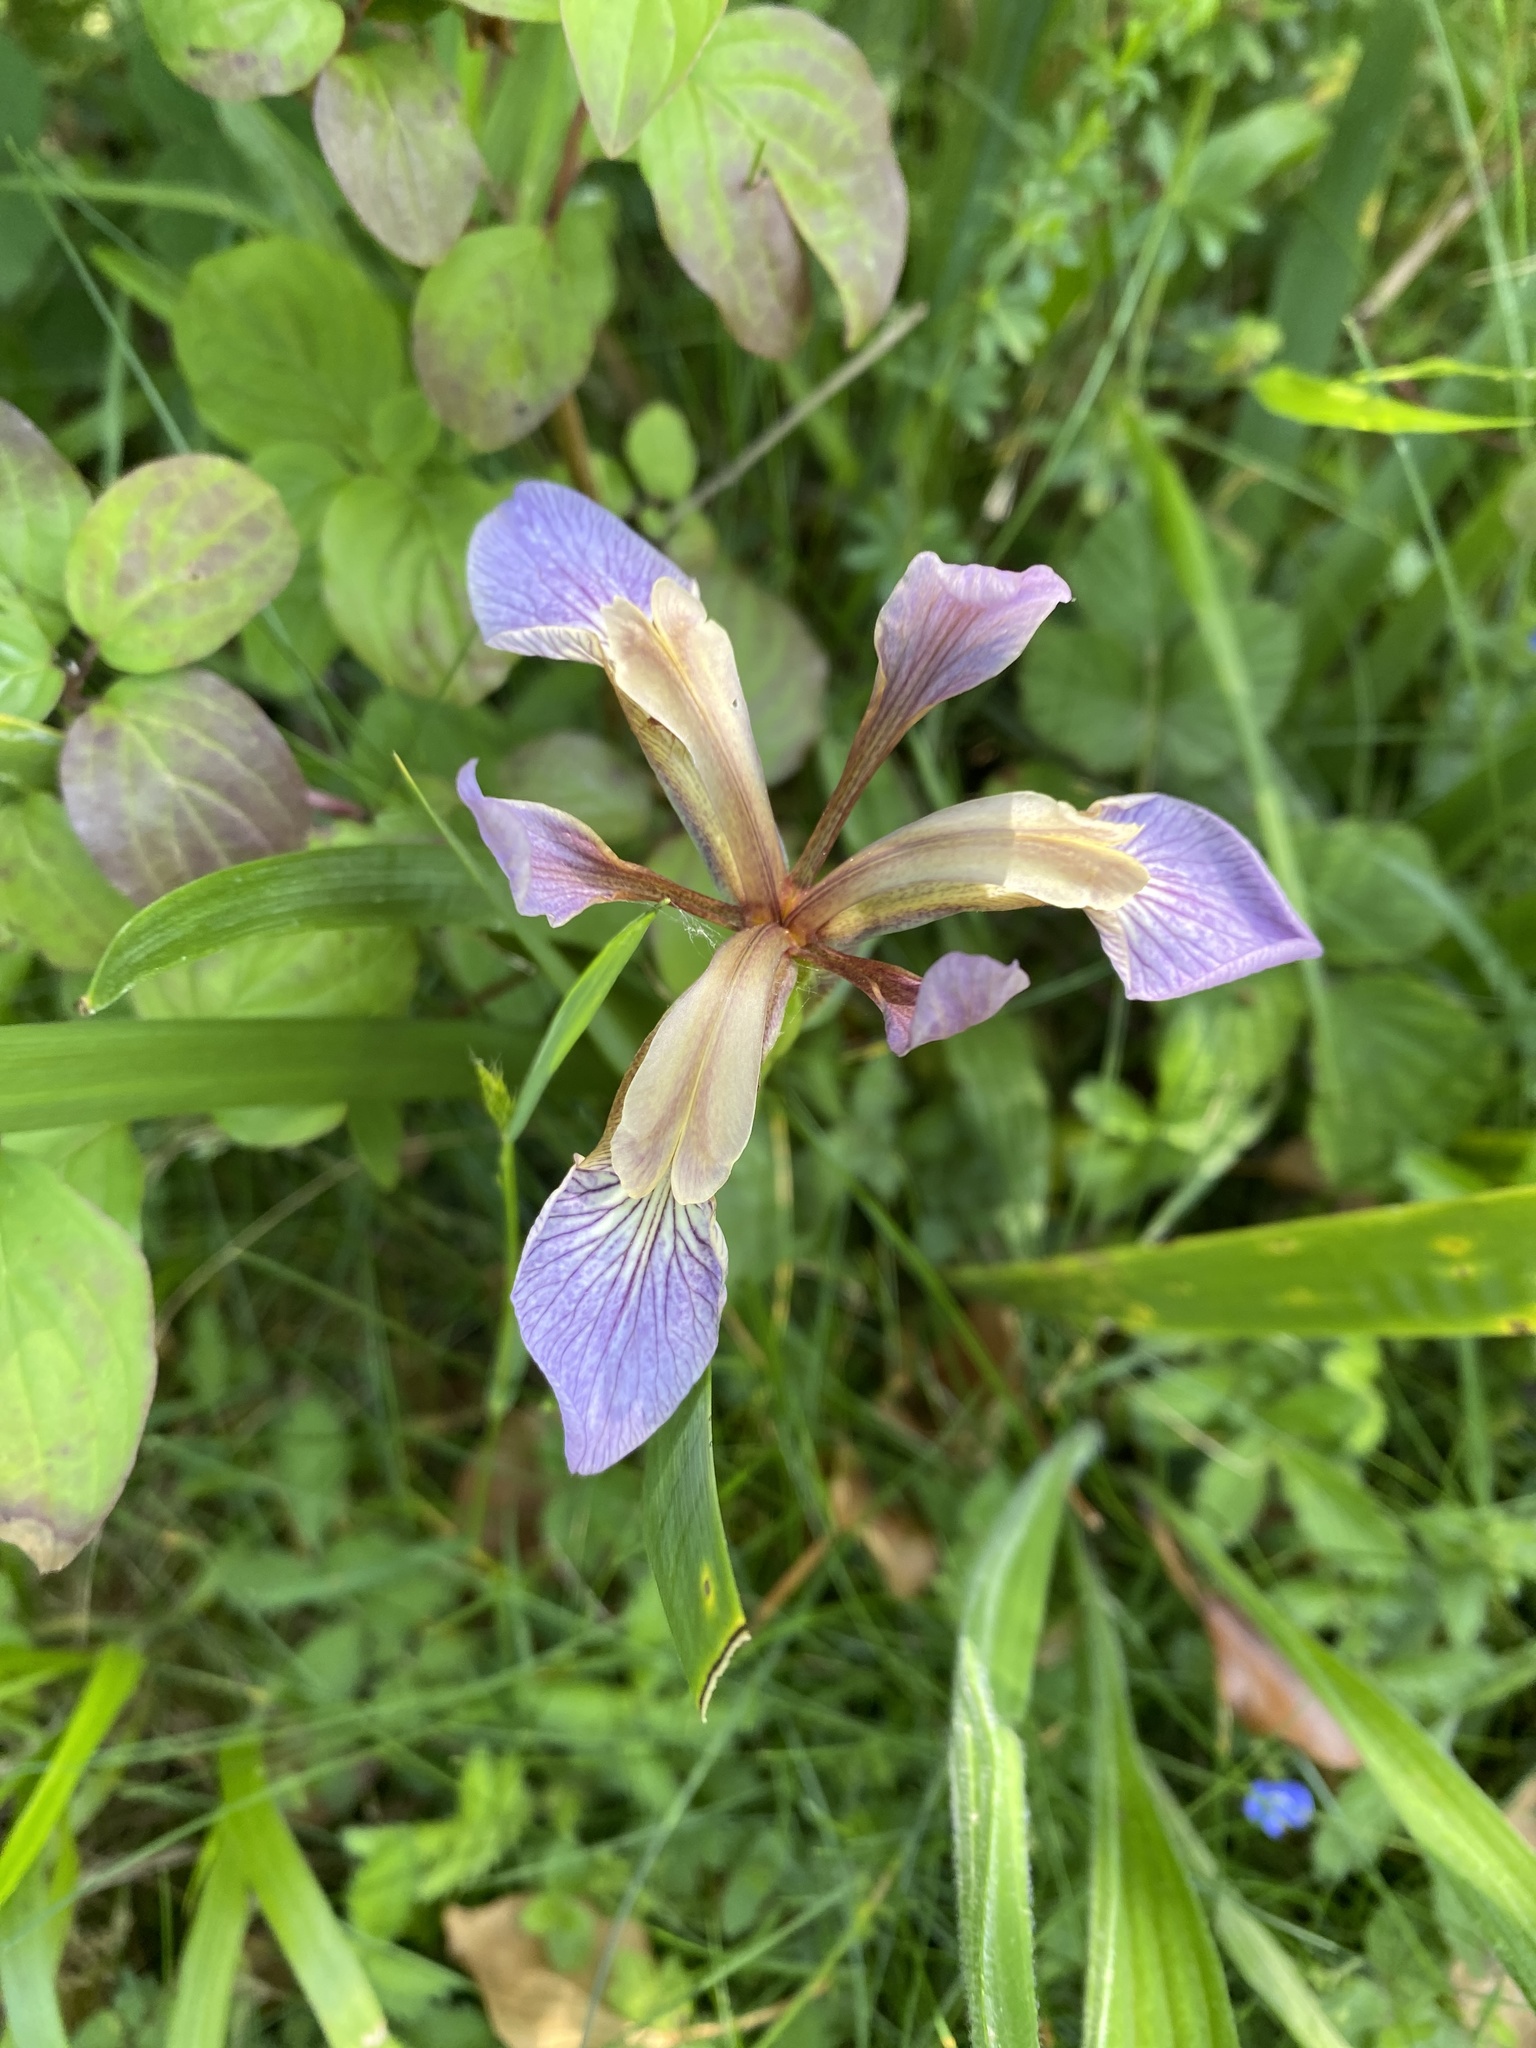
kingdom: Plantae
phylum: Tracheophyta
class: Liliopsida
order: Asparagales
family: Iridaceae
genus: Iris
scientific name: Iris foetidissima
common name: Stinking iris
